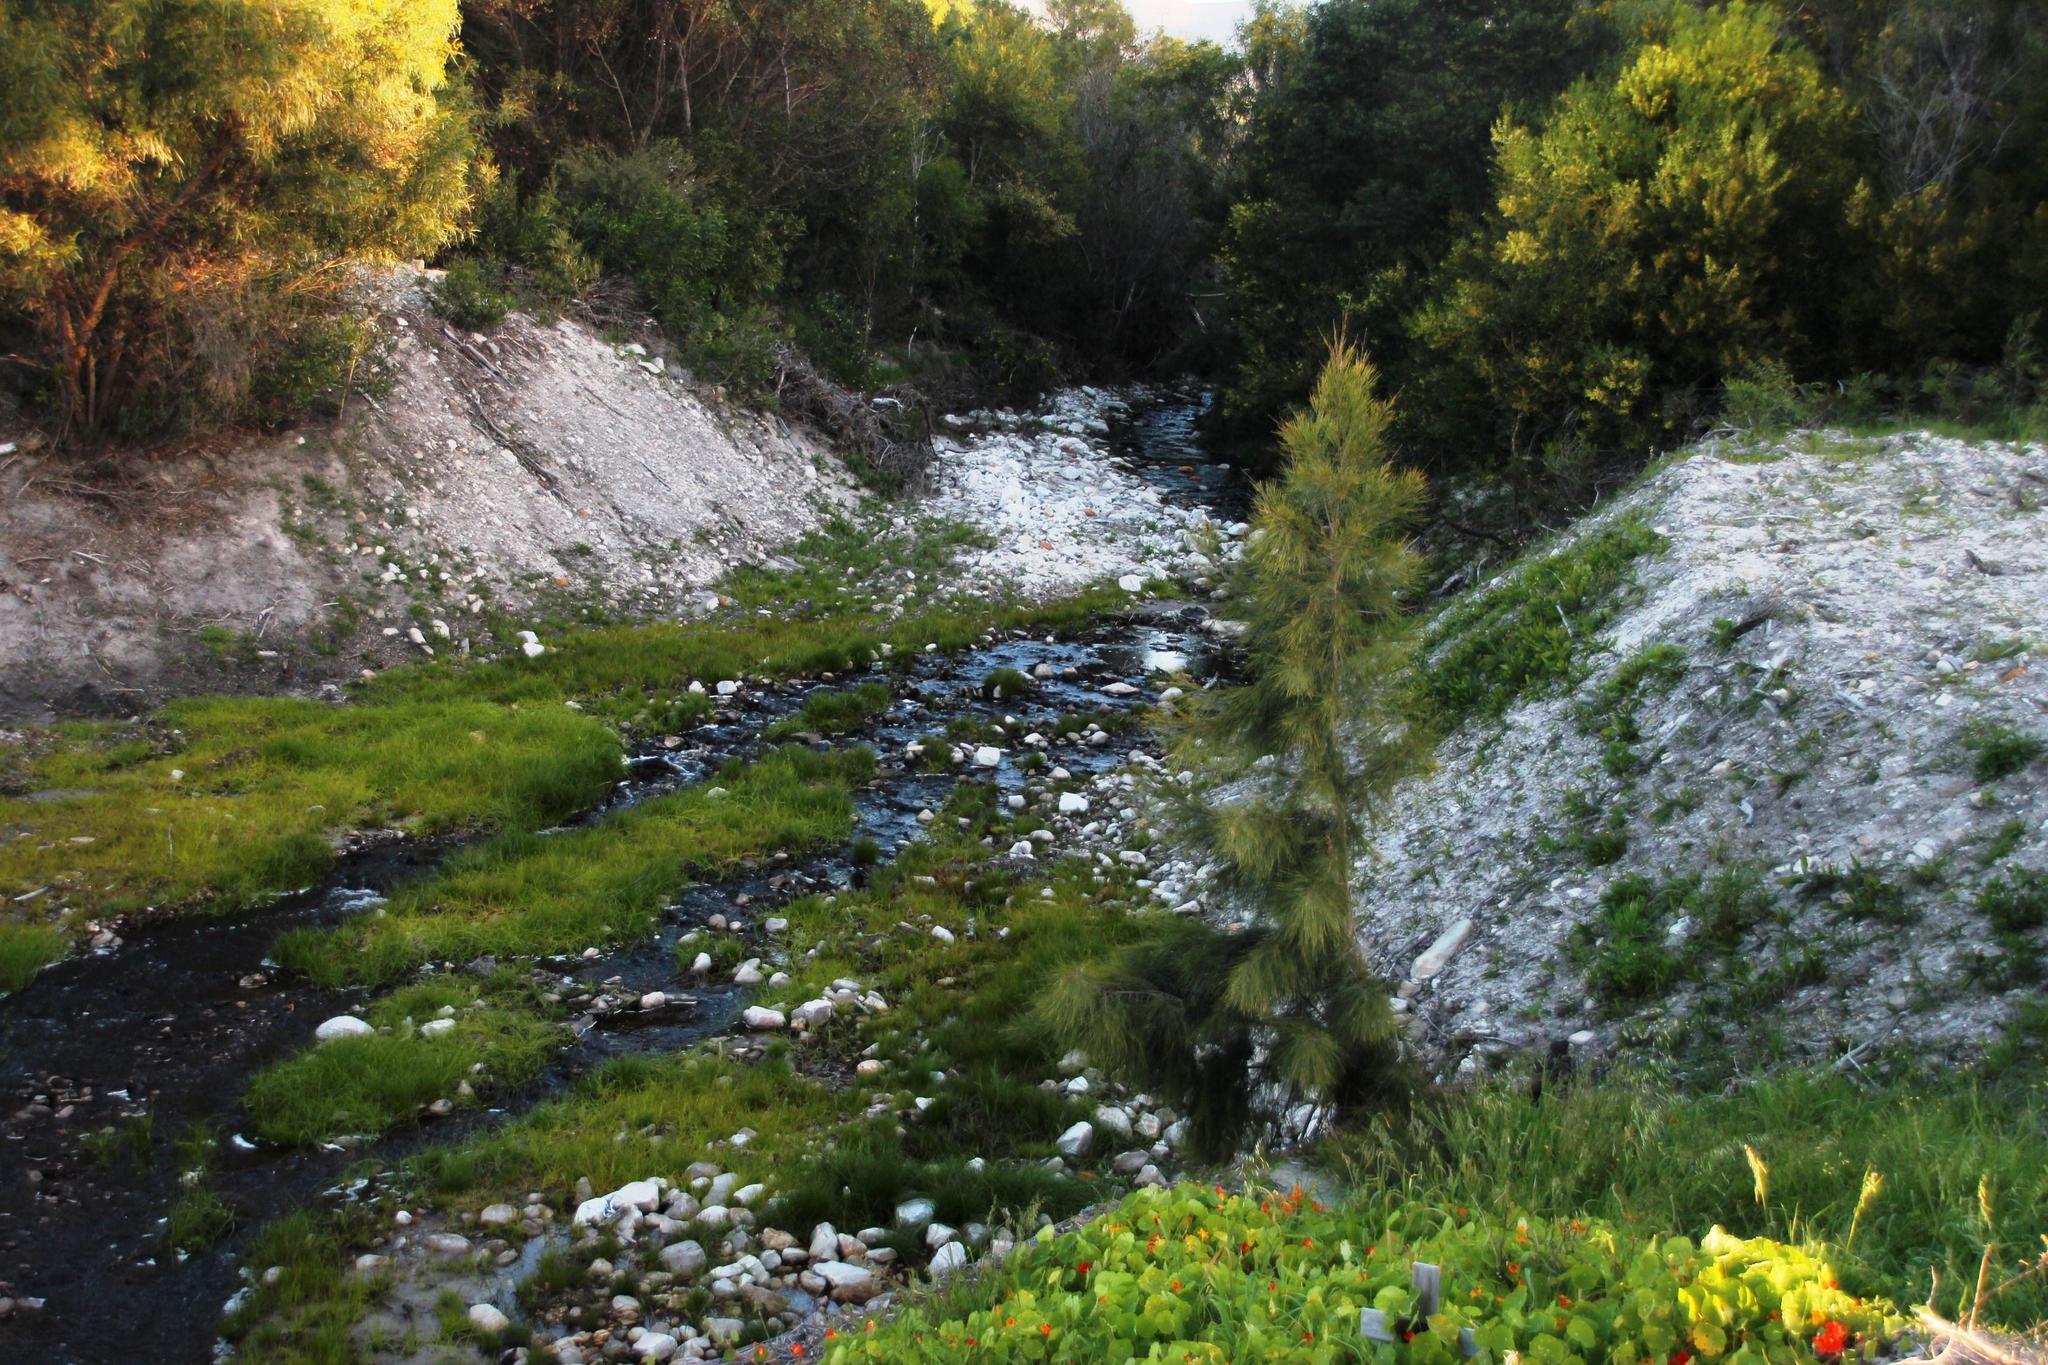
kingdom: Plantae
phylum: Tracheophyta
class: Magnoliopsida
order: Fagales
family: Casuarinaceae
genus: Casuarina
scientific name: Casuarina cunninghamiana
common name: River sheoak
